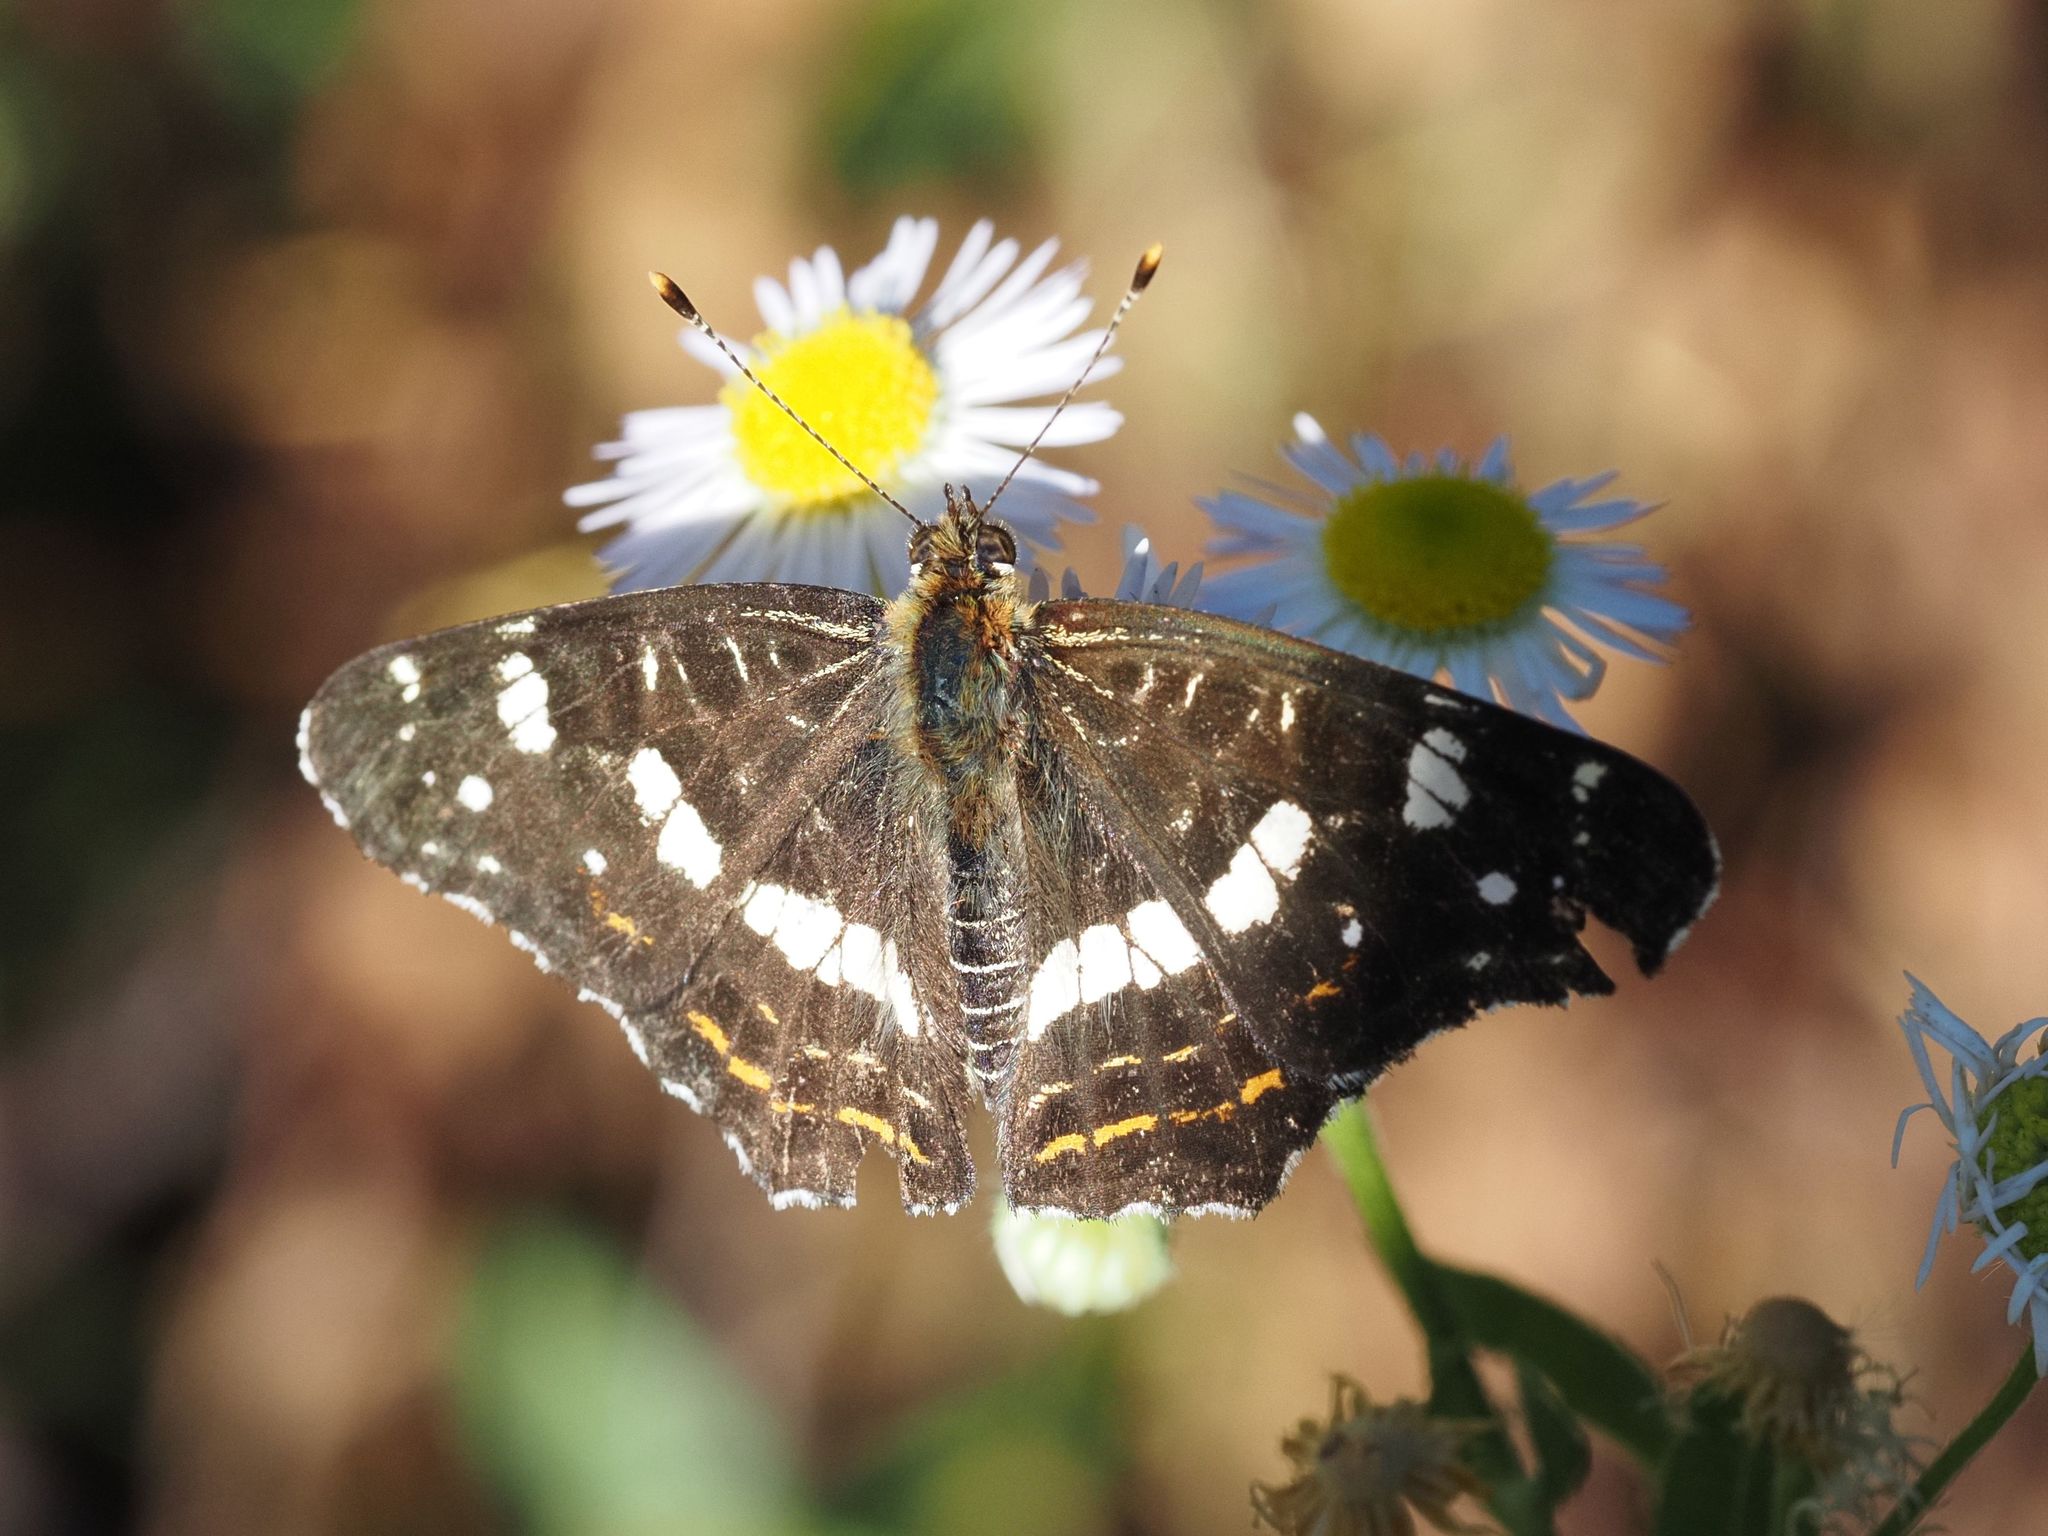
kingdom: Animalia
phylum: Arthropoda
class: Insecta
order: Lepidoptera
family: Nymphalidae
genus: Araschnia
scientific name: Araschnia levana
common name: Map butterfly
